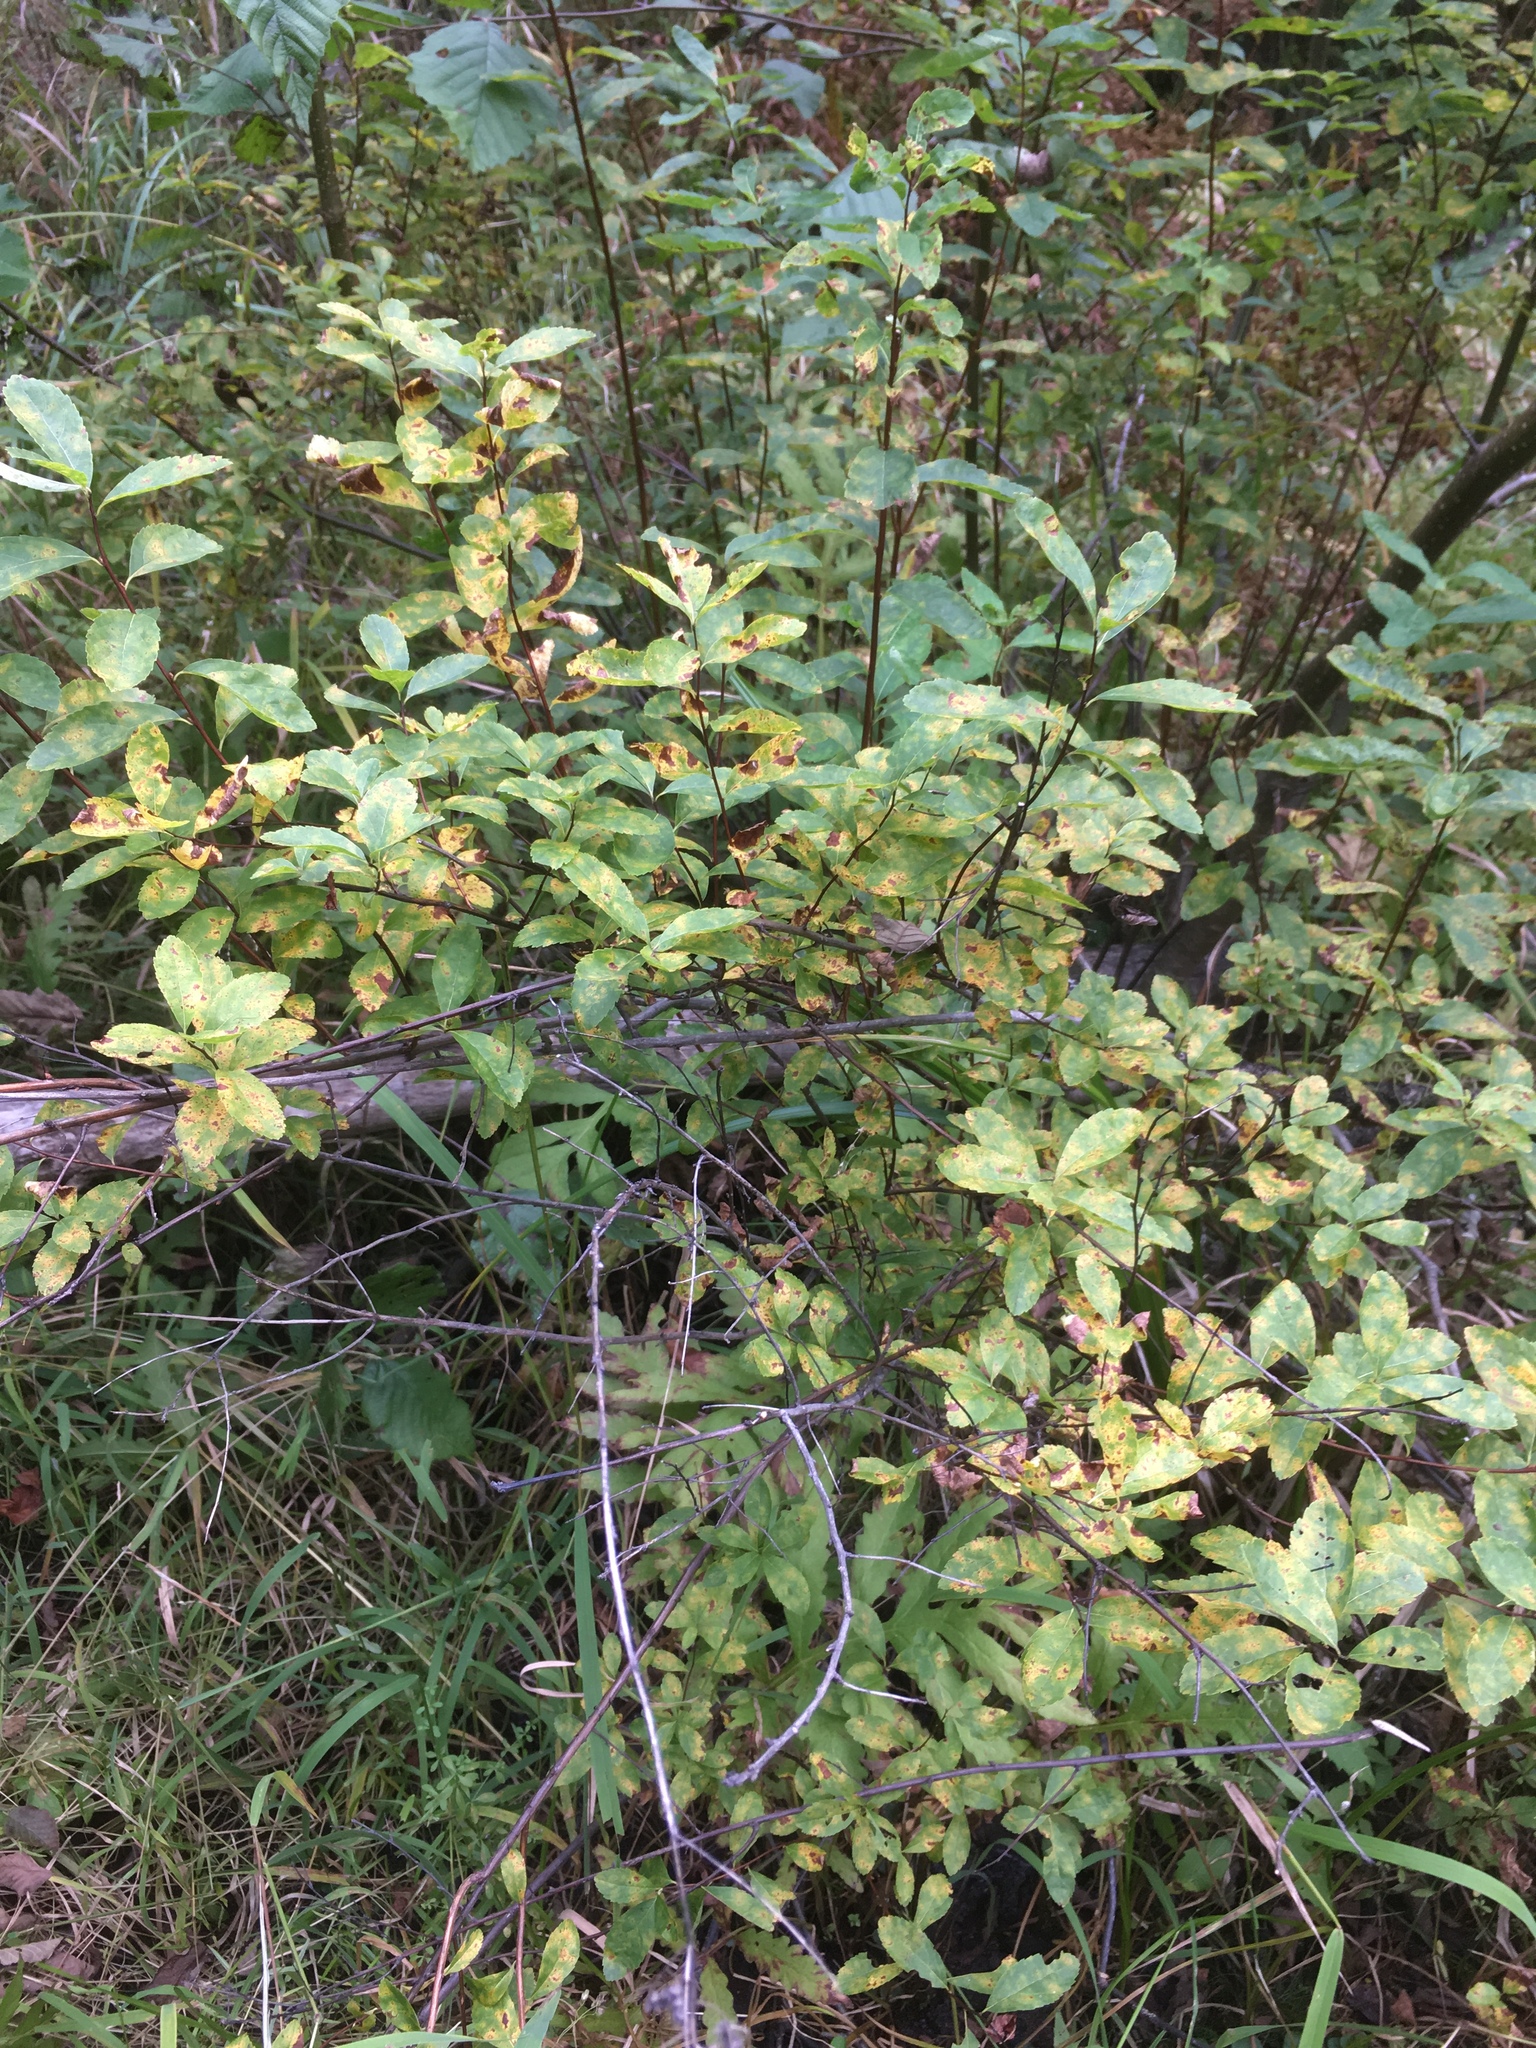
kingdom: Plantae
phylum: Tracheophyta
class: Magnoliopsida
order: Rosales
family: Rosaceae
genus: Spiraea
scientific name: Spiraea alba
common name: Pale bridewort
